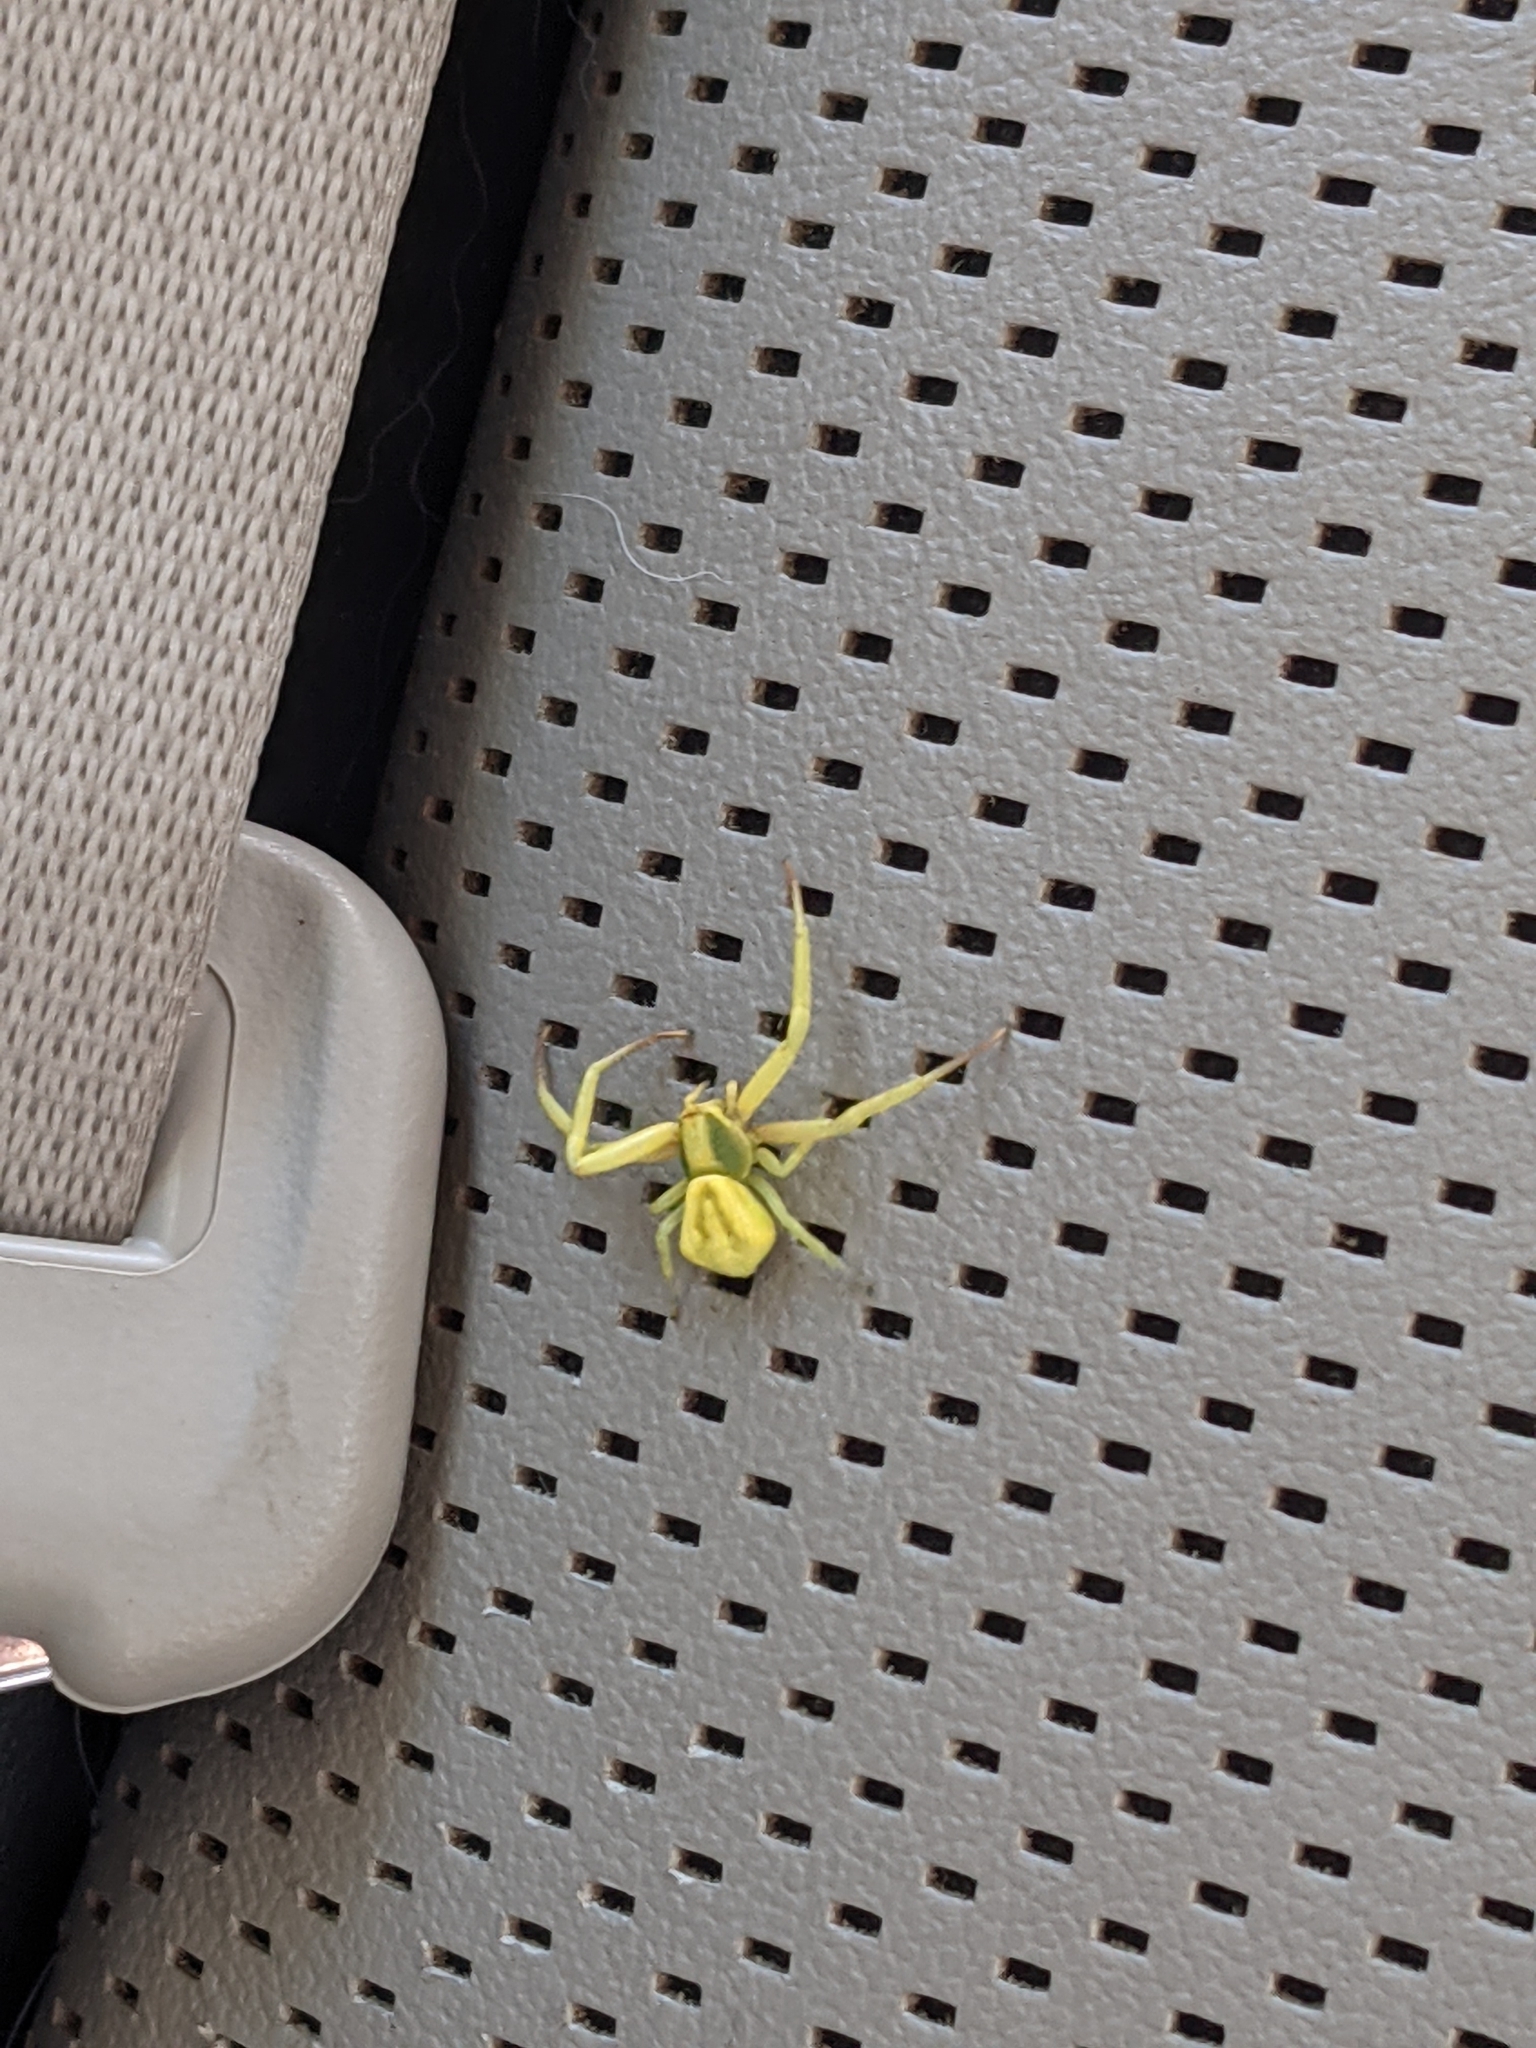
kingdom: Animalia
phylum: Arthropoda
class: Arachnida
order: Araneae
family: Thomisidae
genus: Misumenoides
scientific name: Misumenoides formosipes
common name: White-banded crab spider
